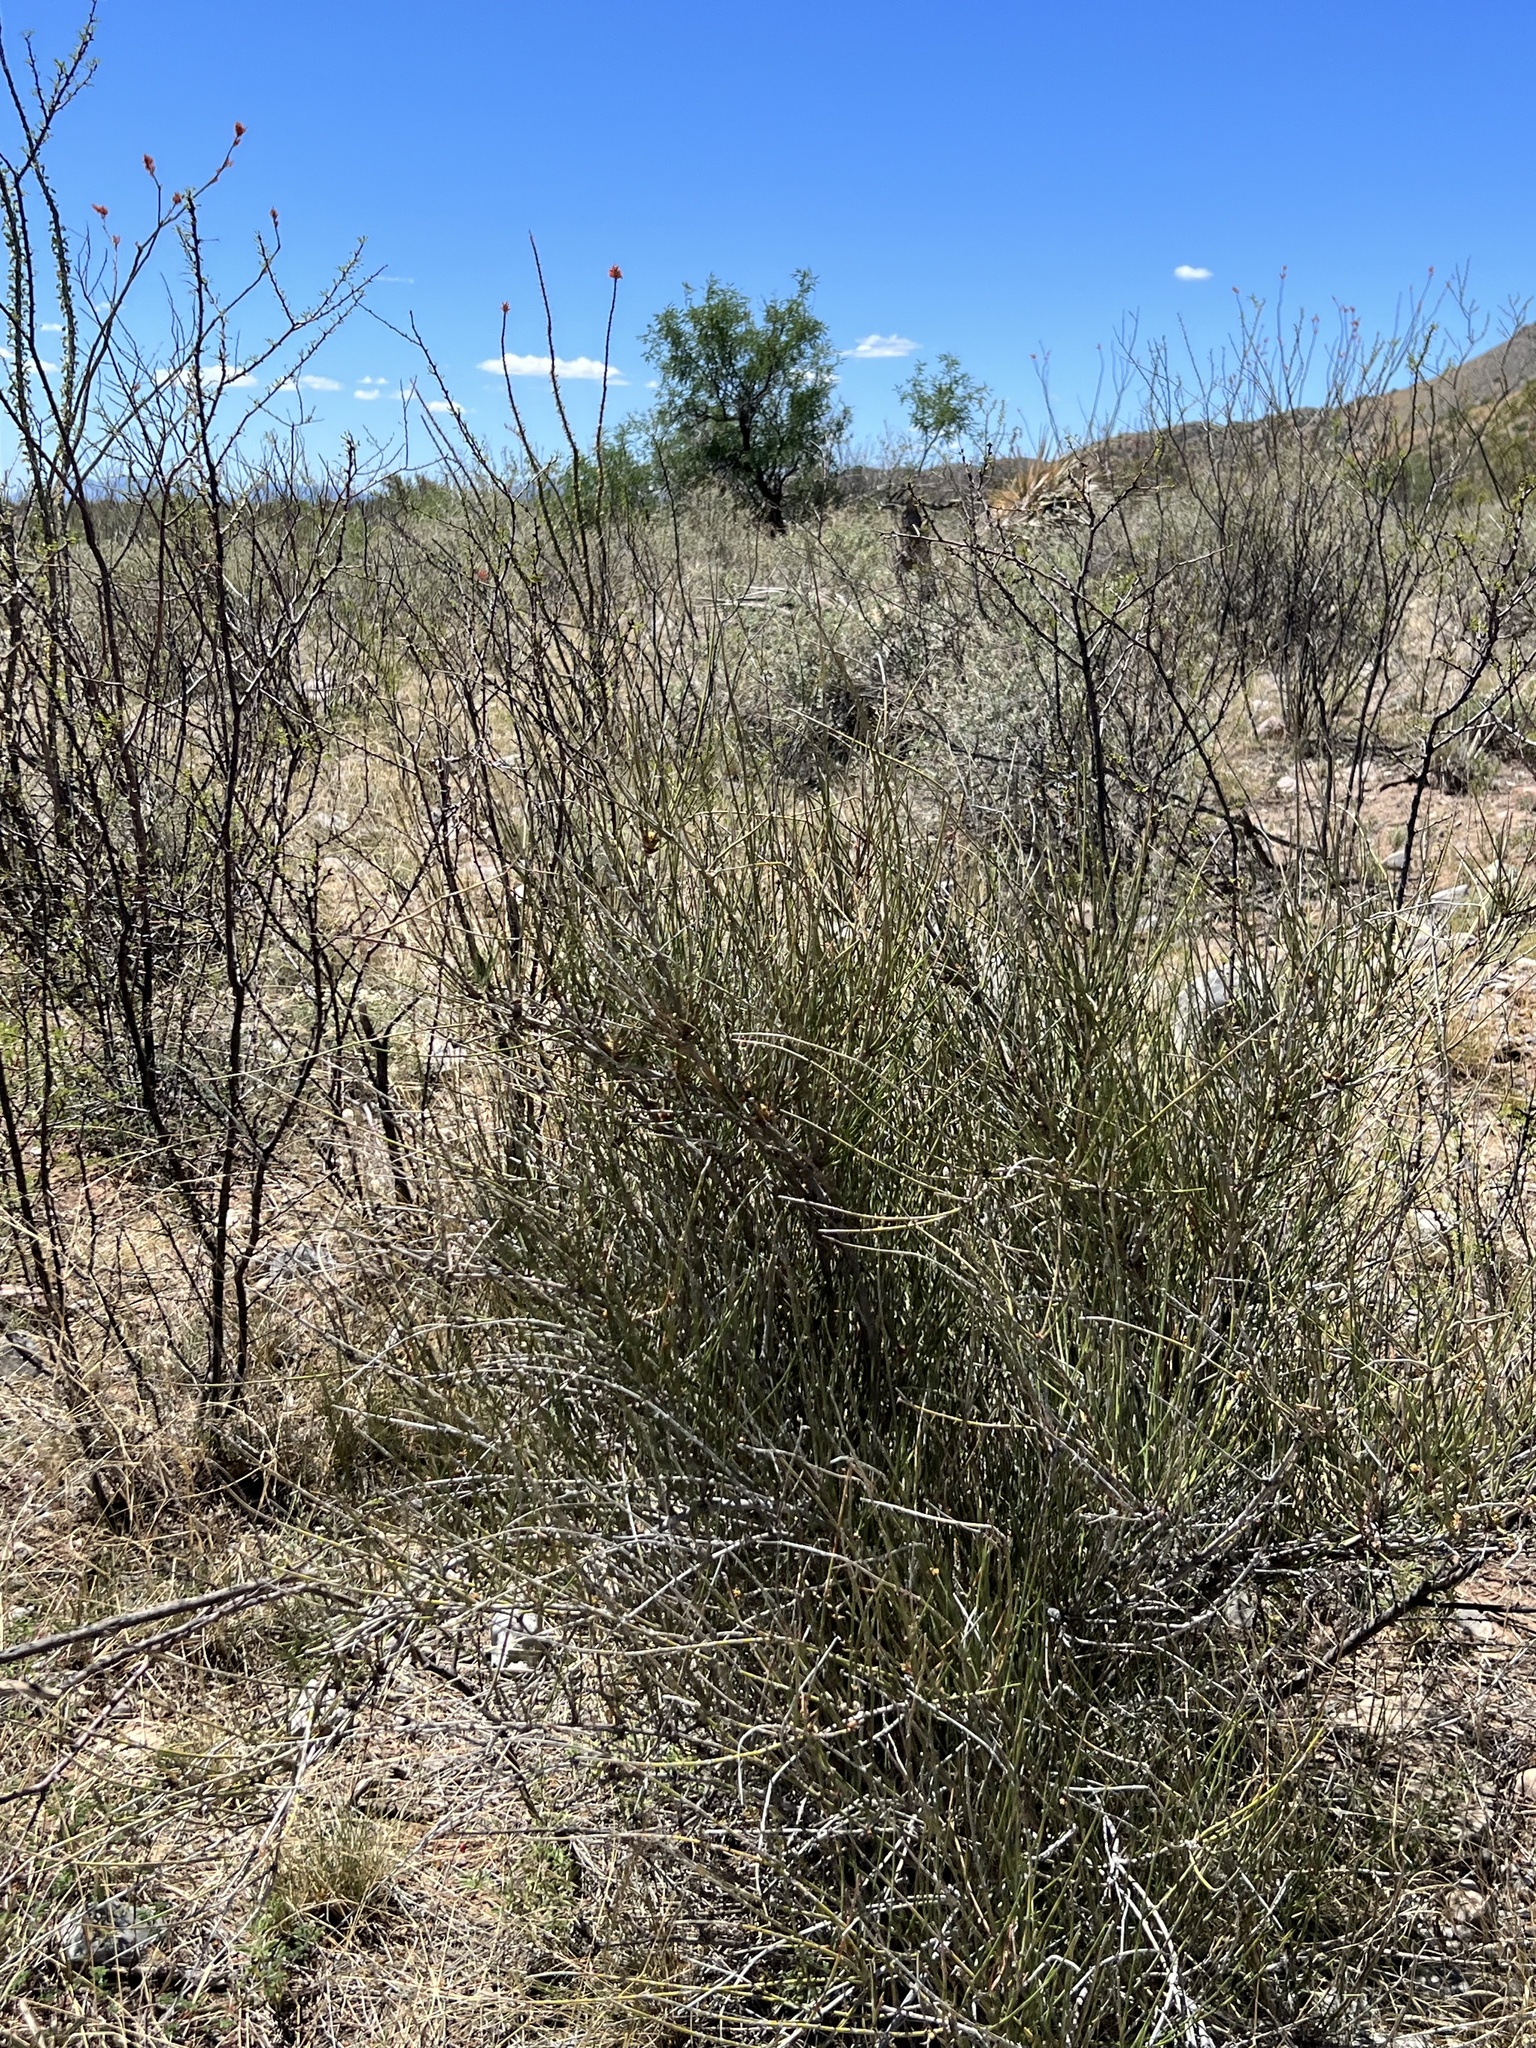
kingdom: Plantae
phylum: Tracheophyta
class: Gnetopsida
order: Ephedrales
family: Ephedraceae
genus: Ephedra
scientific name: Ephedra trifurca
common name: Mexican-tea
